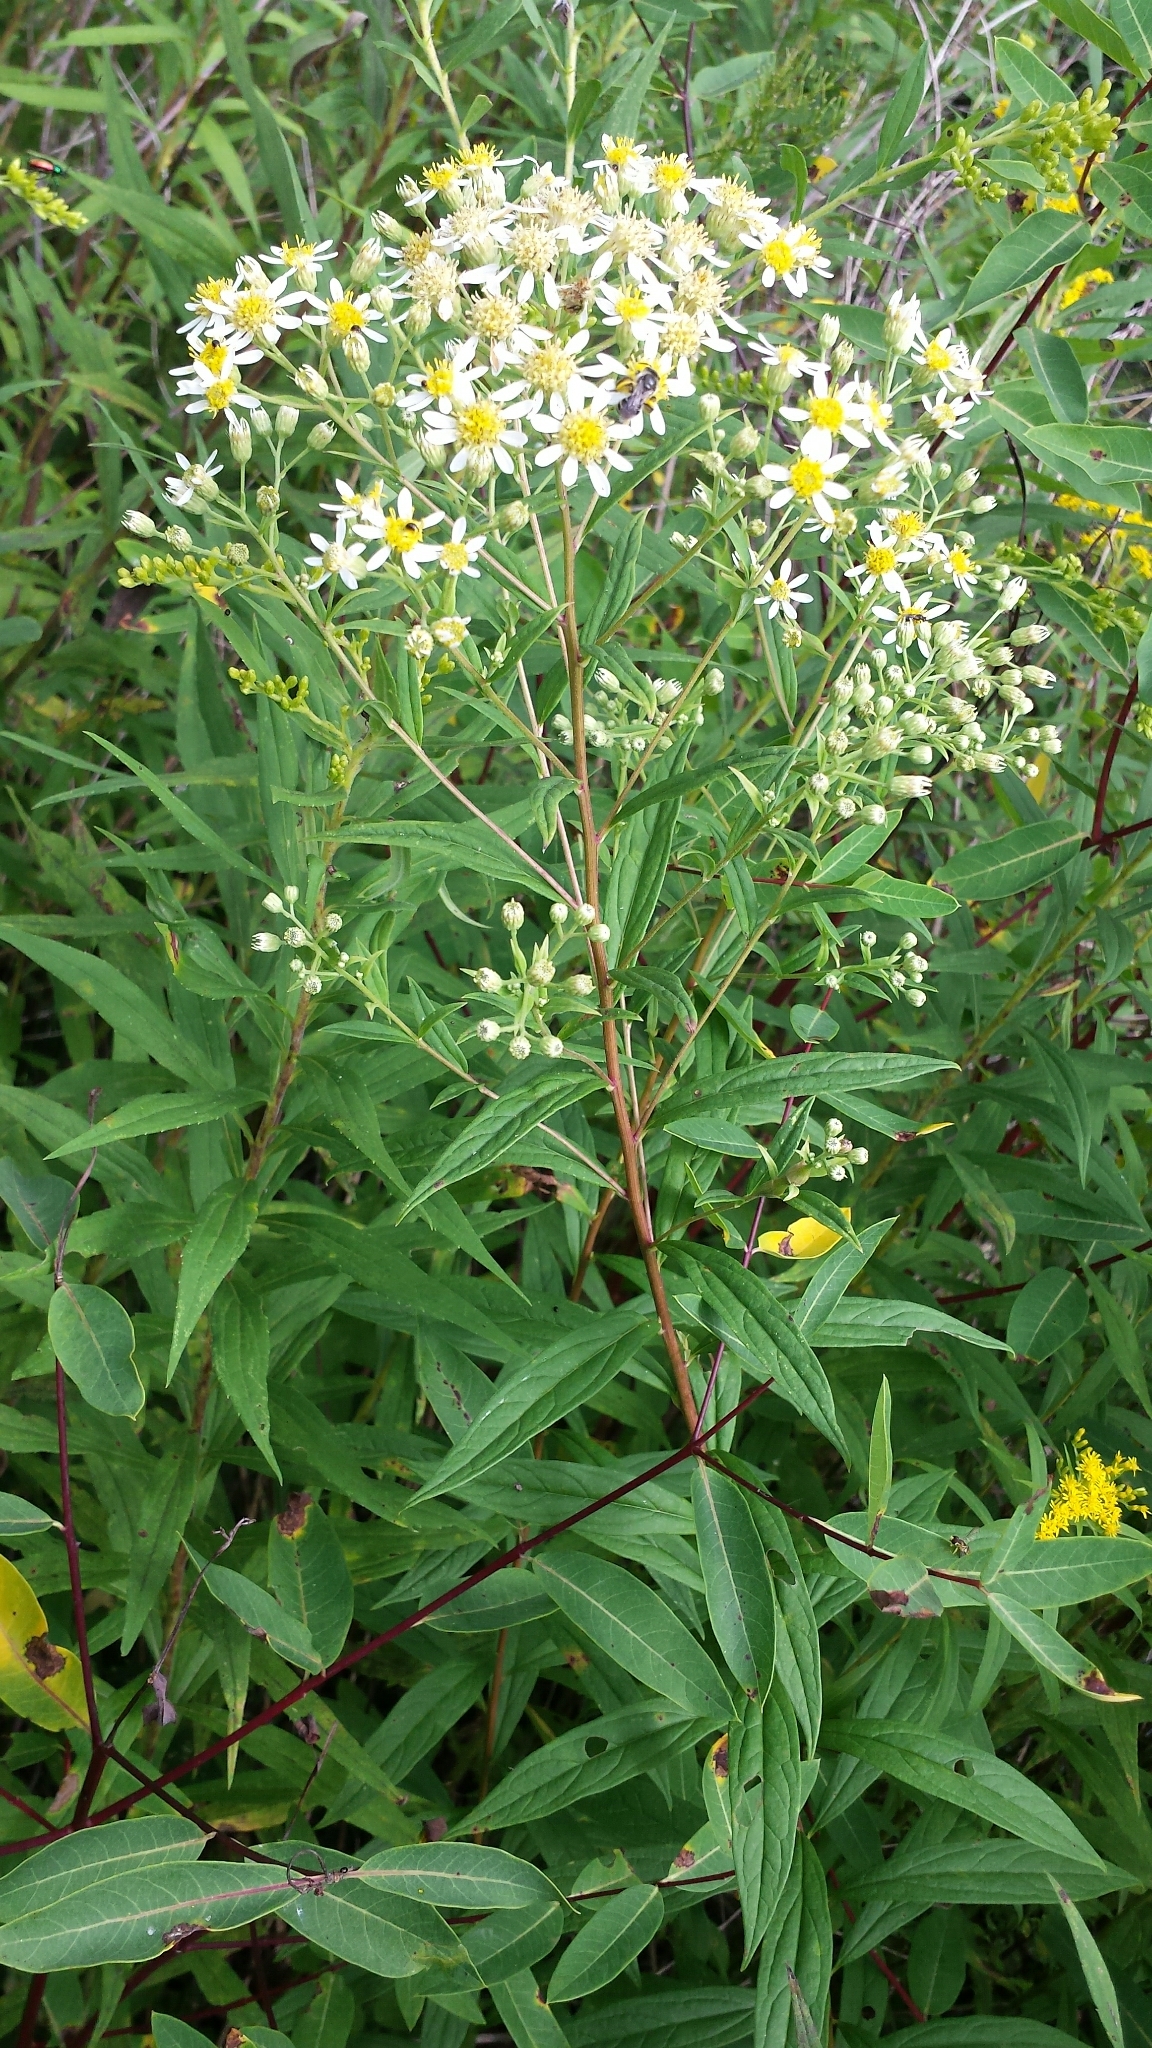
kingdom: Plantae
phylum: Tracheophyta
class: Magnoliopsida
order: Asterales
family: Asteraceae
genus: Doellingeria
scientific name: Doellingeria umbellata
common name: Flat-top white aster
